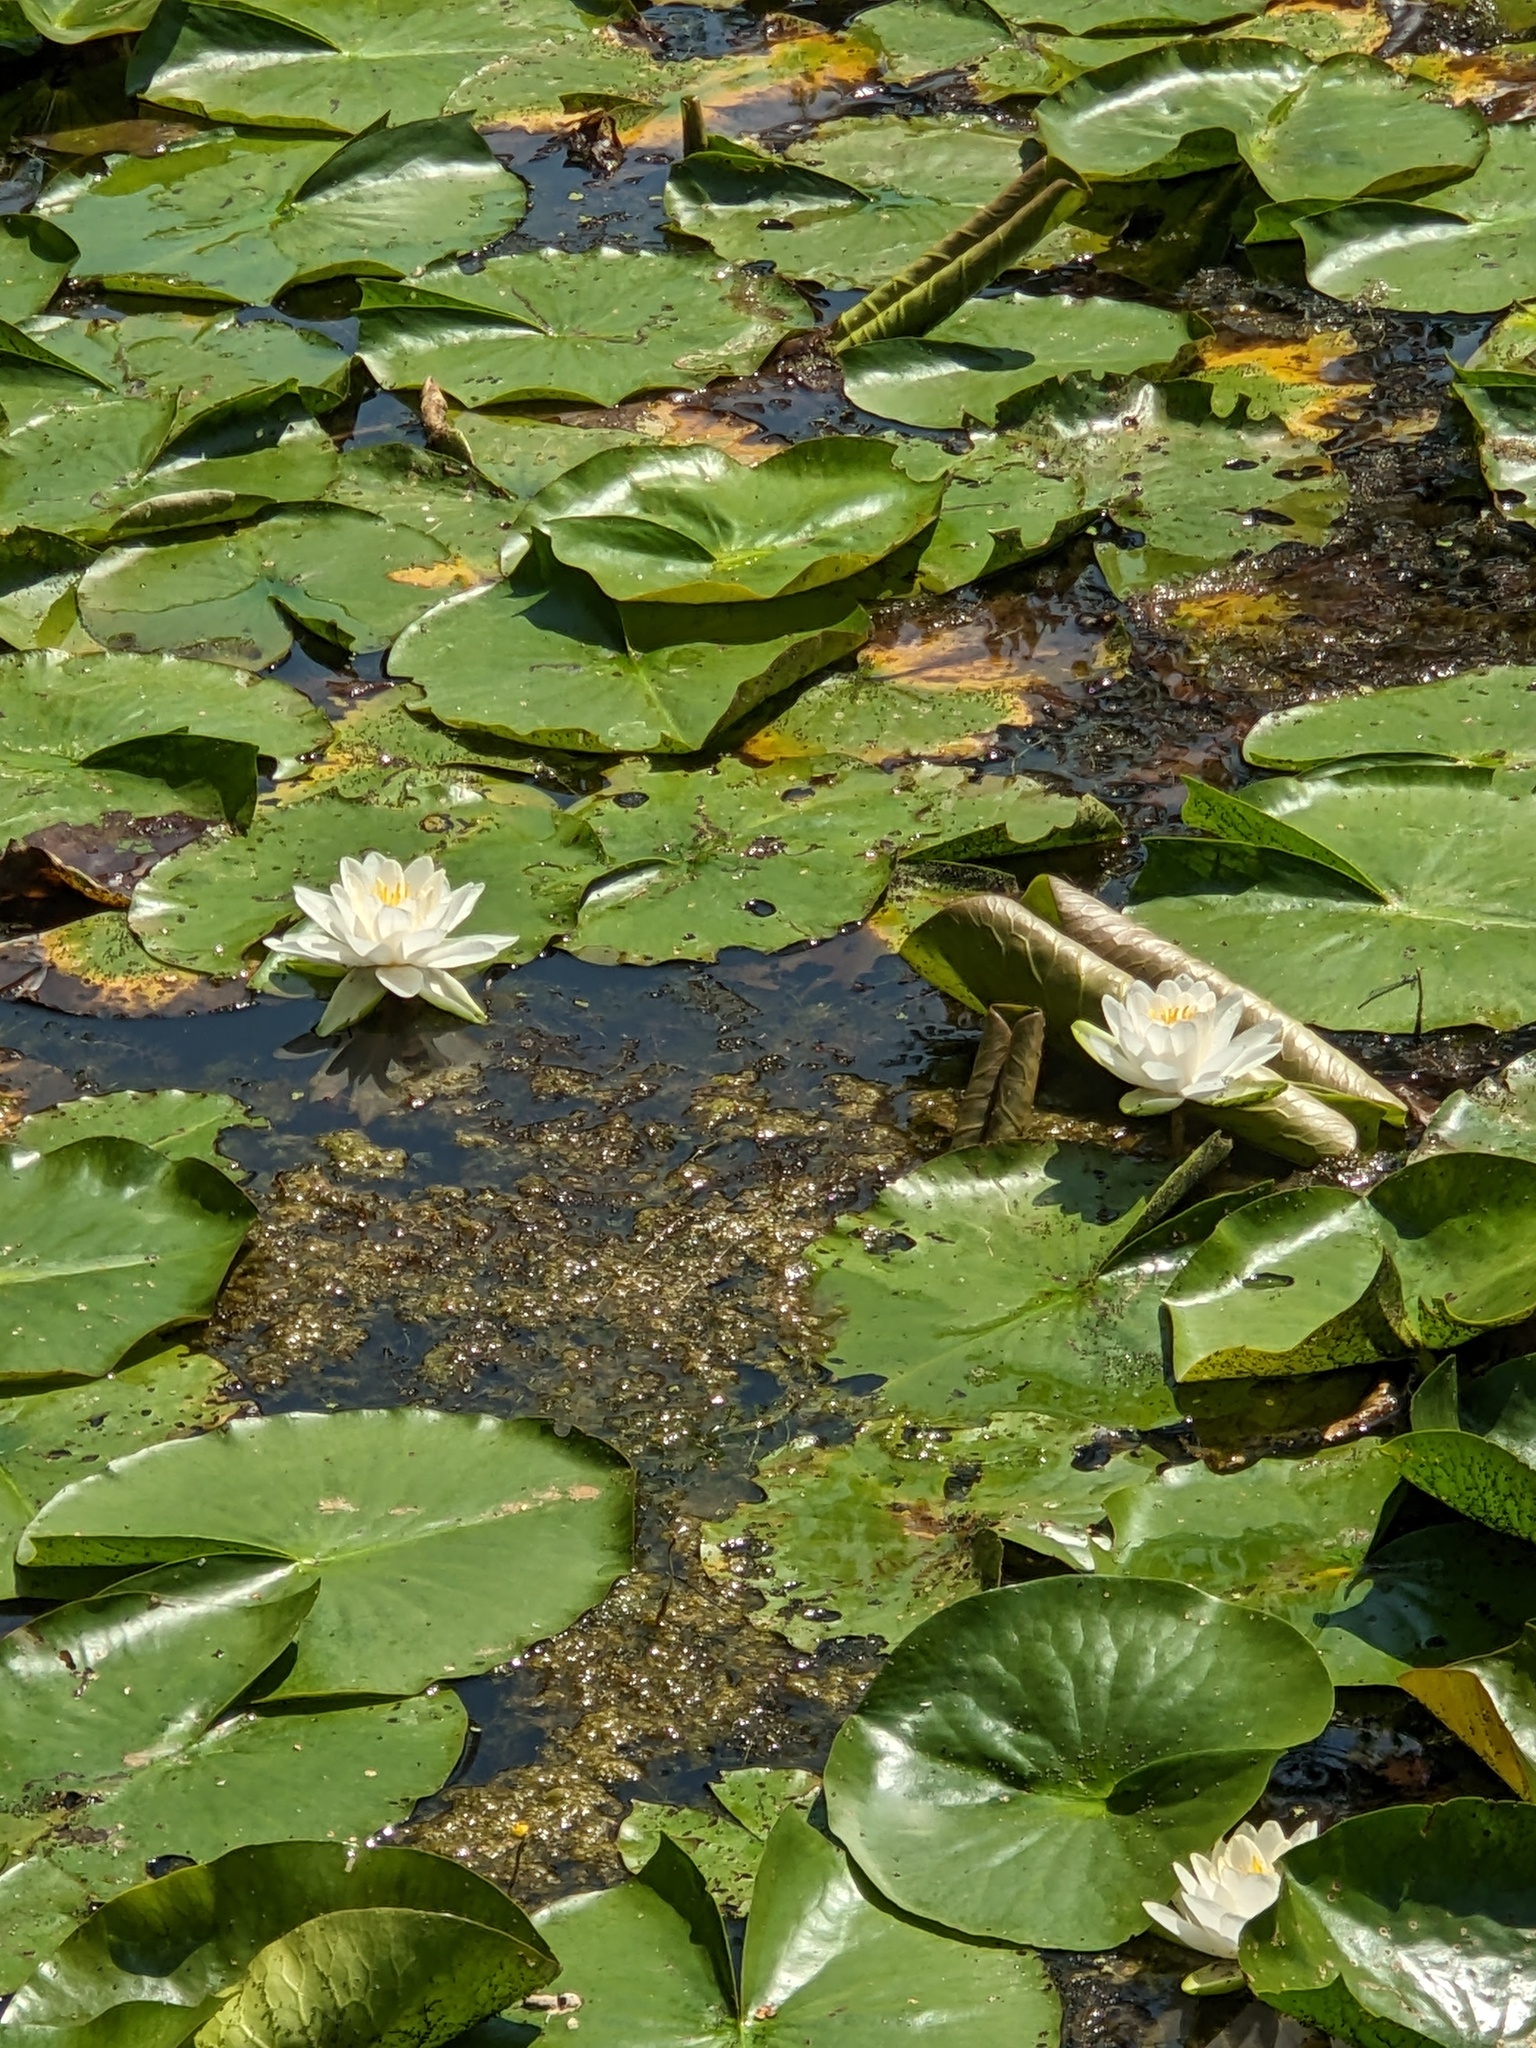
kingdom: Plantae
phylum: Tracheophyta
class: Magnoliopsida
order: Nymphaeales
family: Nymphaeaceae
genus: Nymphaea
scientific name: Nymphaea odorata
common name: Fragrant water-lily
